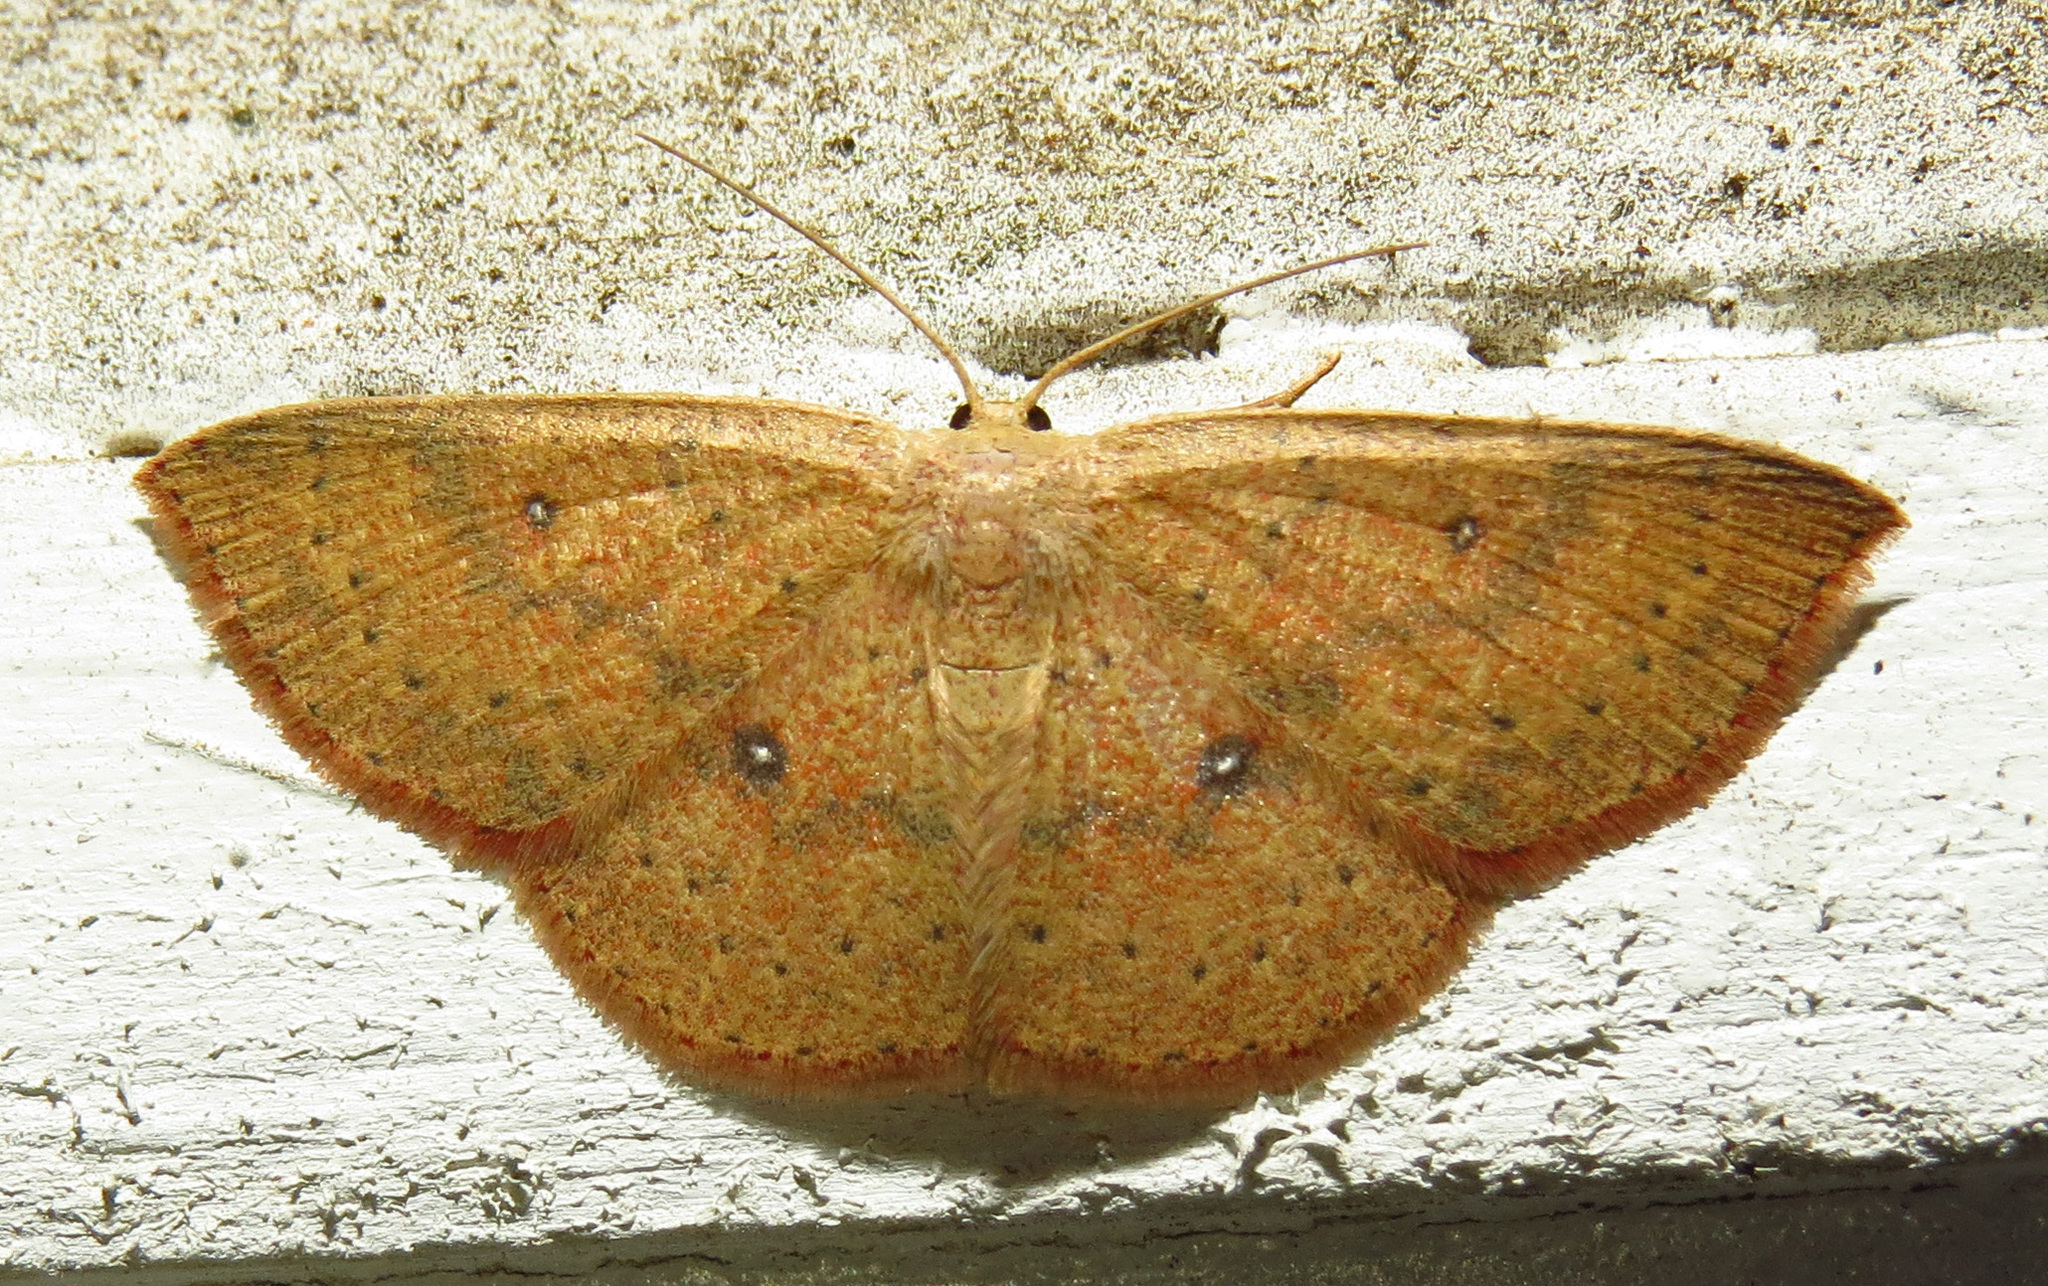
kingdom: Animalia
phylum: Arthropoda
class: Insecta
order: Lepidoptera
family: Geometridae
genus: Cyclophora
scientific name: Cyclophora packardi
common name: Packard's wave
